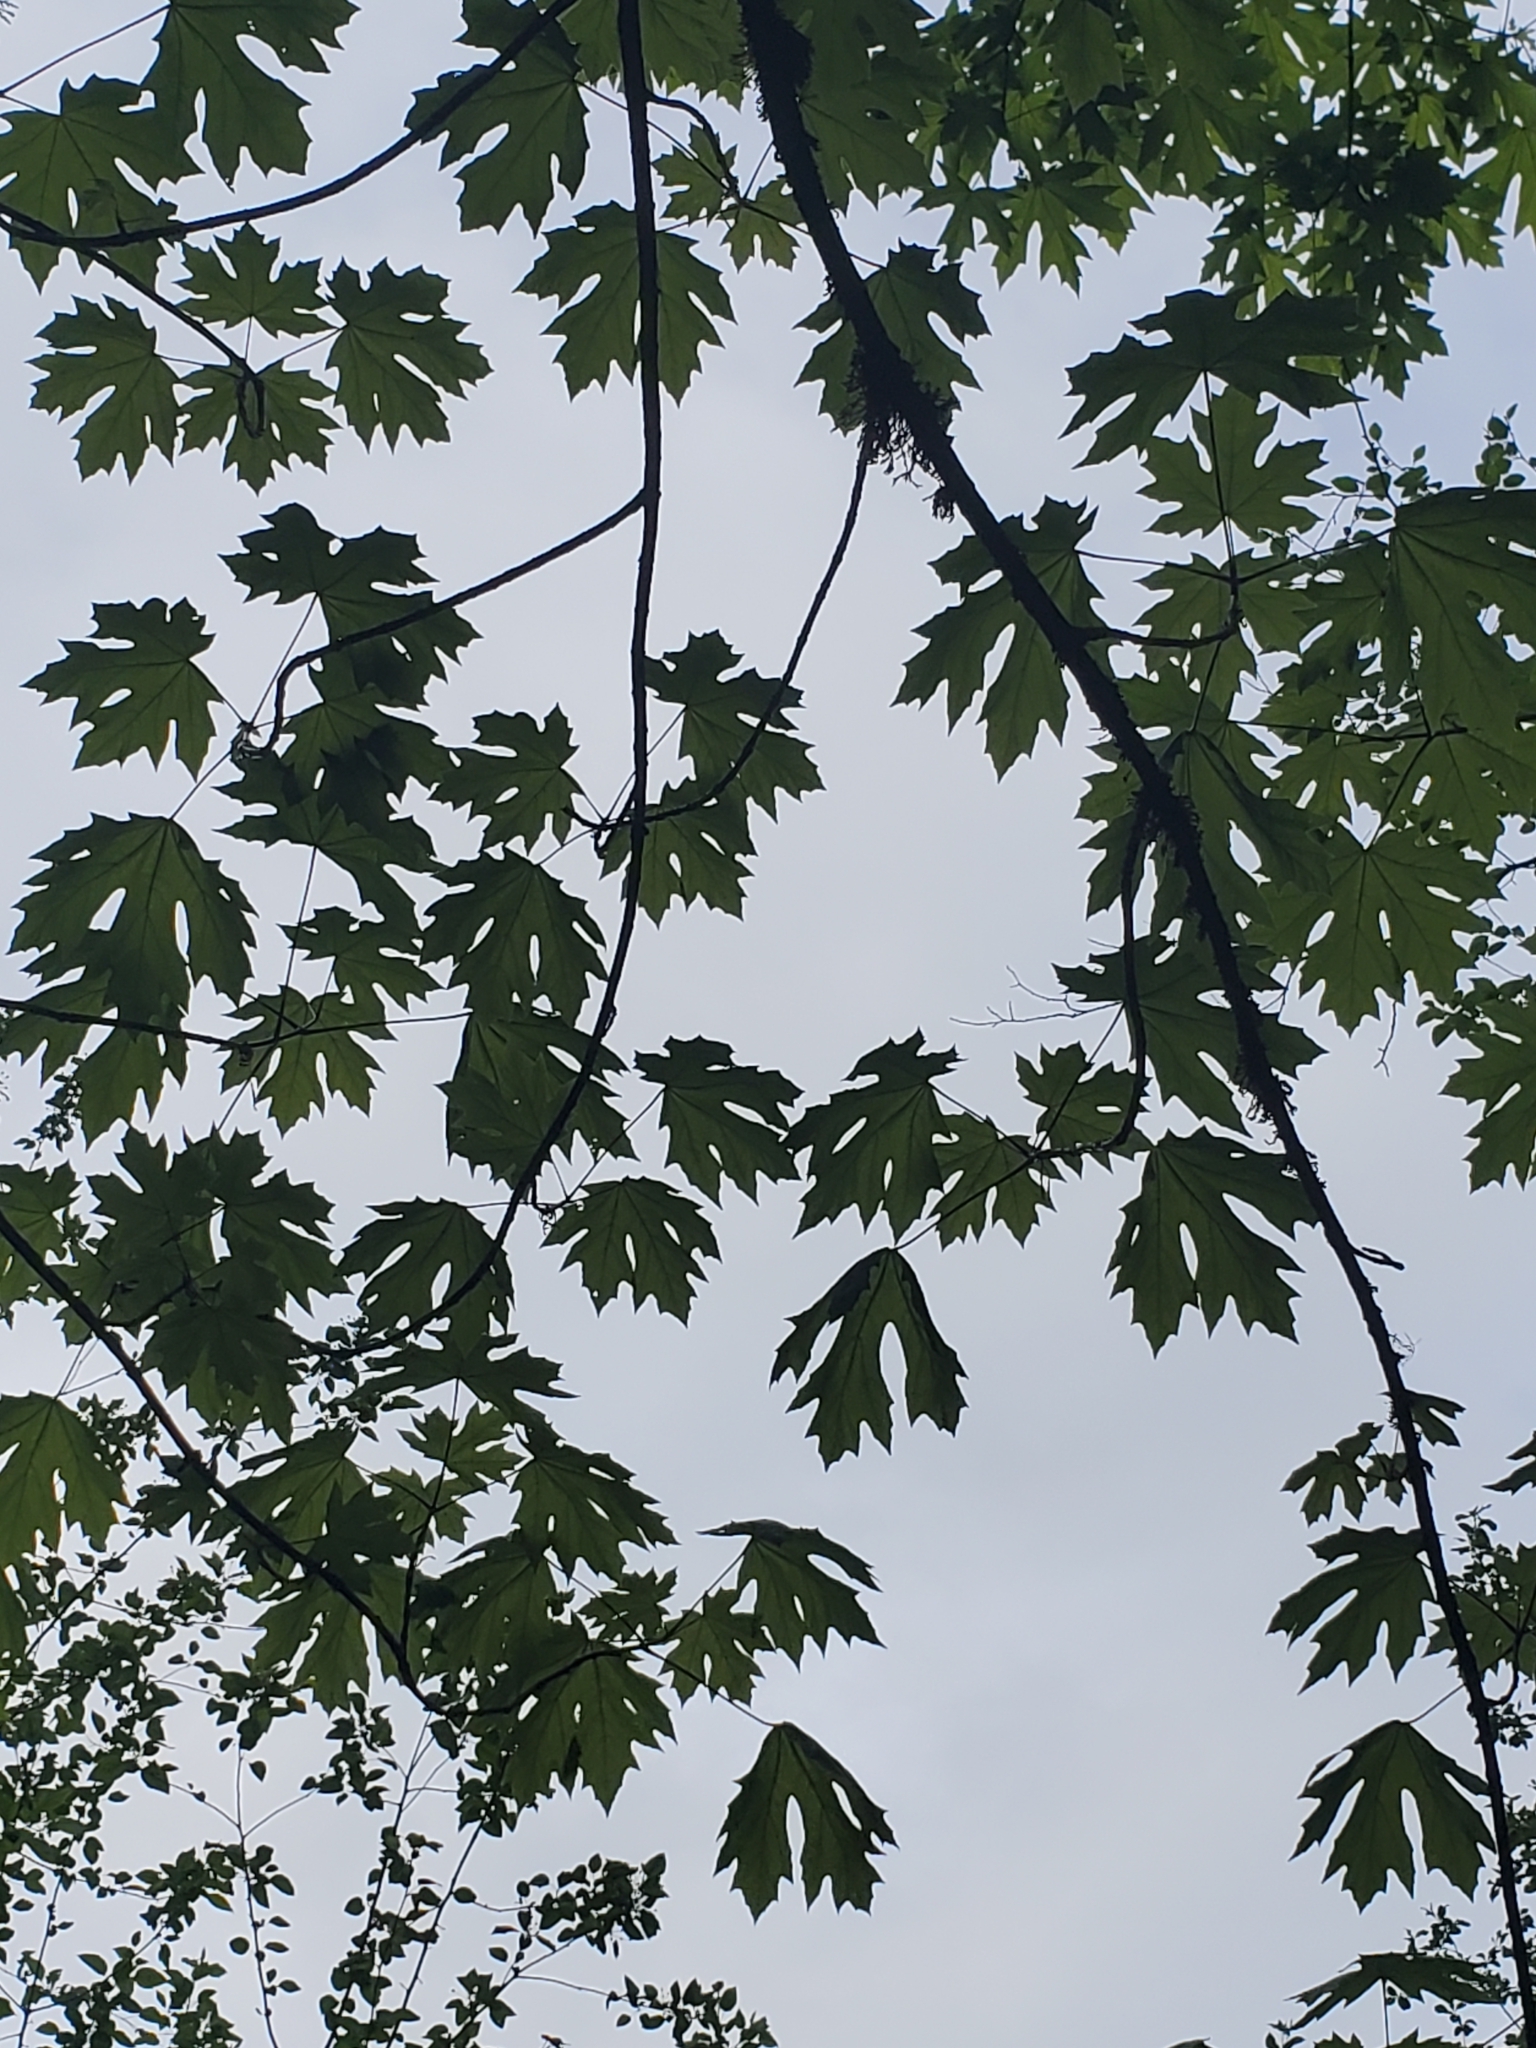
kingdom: Plantae
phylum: Tracheophyta
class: Magnoliopsida
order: Sapindales
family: Sapindaceae
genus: Acer
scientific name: Acer macrophyllum
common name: Oregon maple
